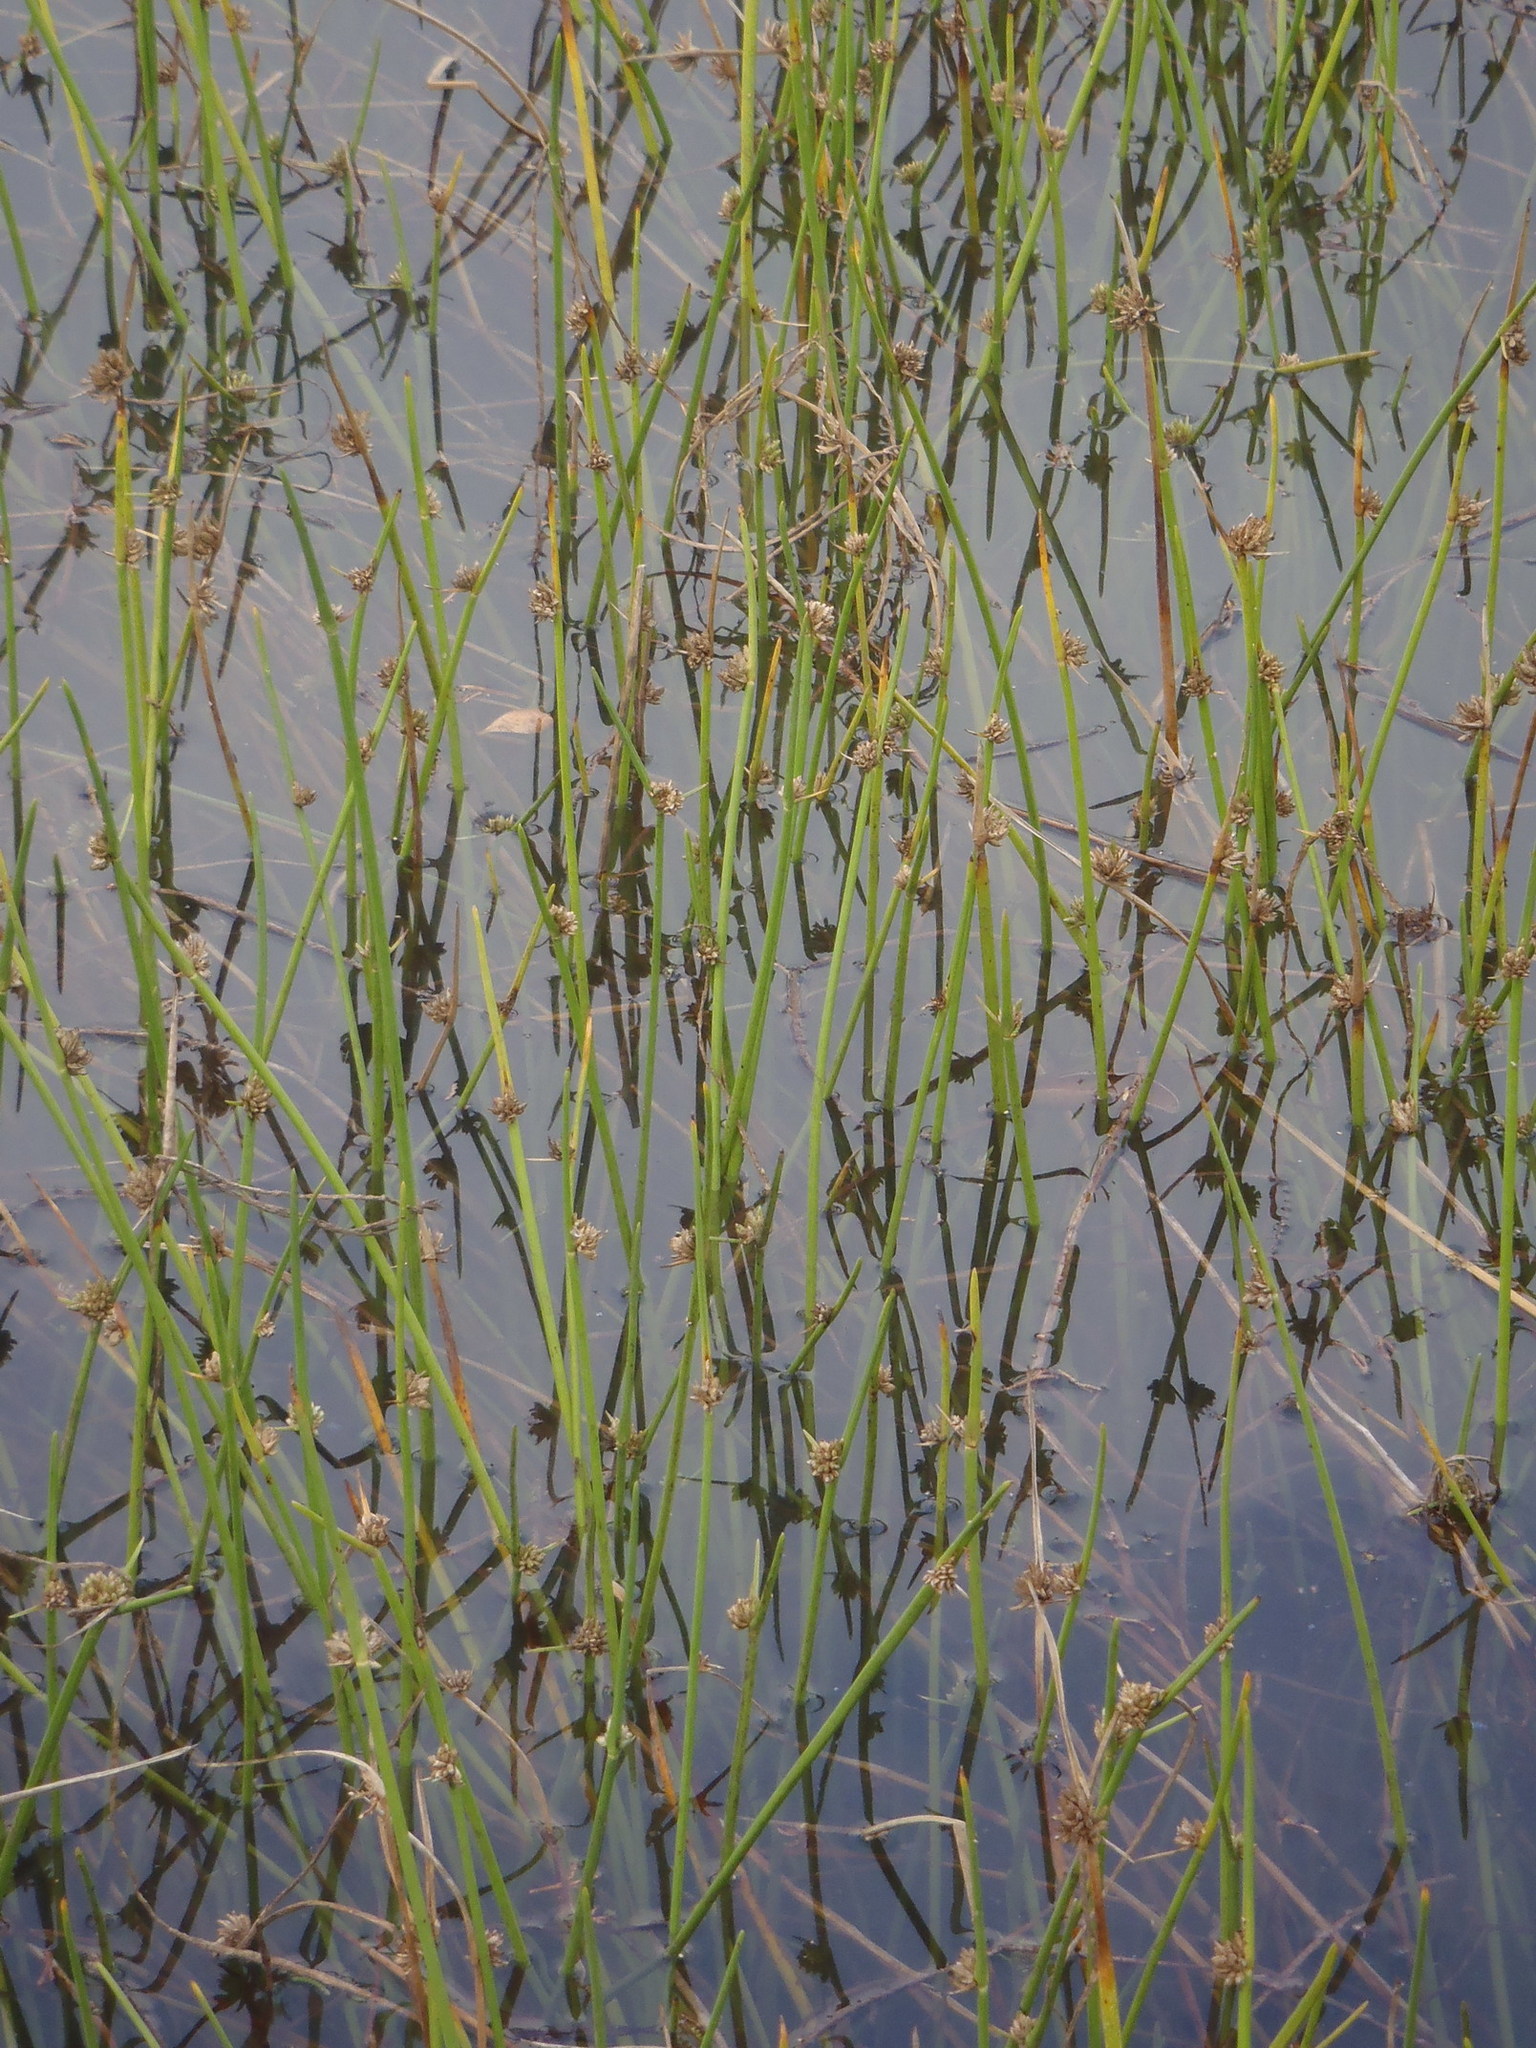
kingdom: Plantae
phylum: Tracheophyta
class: Liliopsida
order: Poales
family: Cyperaceae
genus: Cyperus
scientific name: Cyperus laevigatus
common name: Smooth flat sedge
